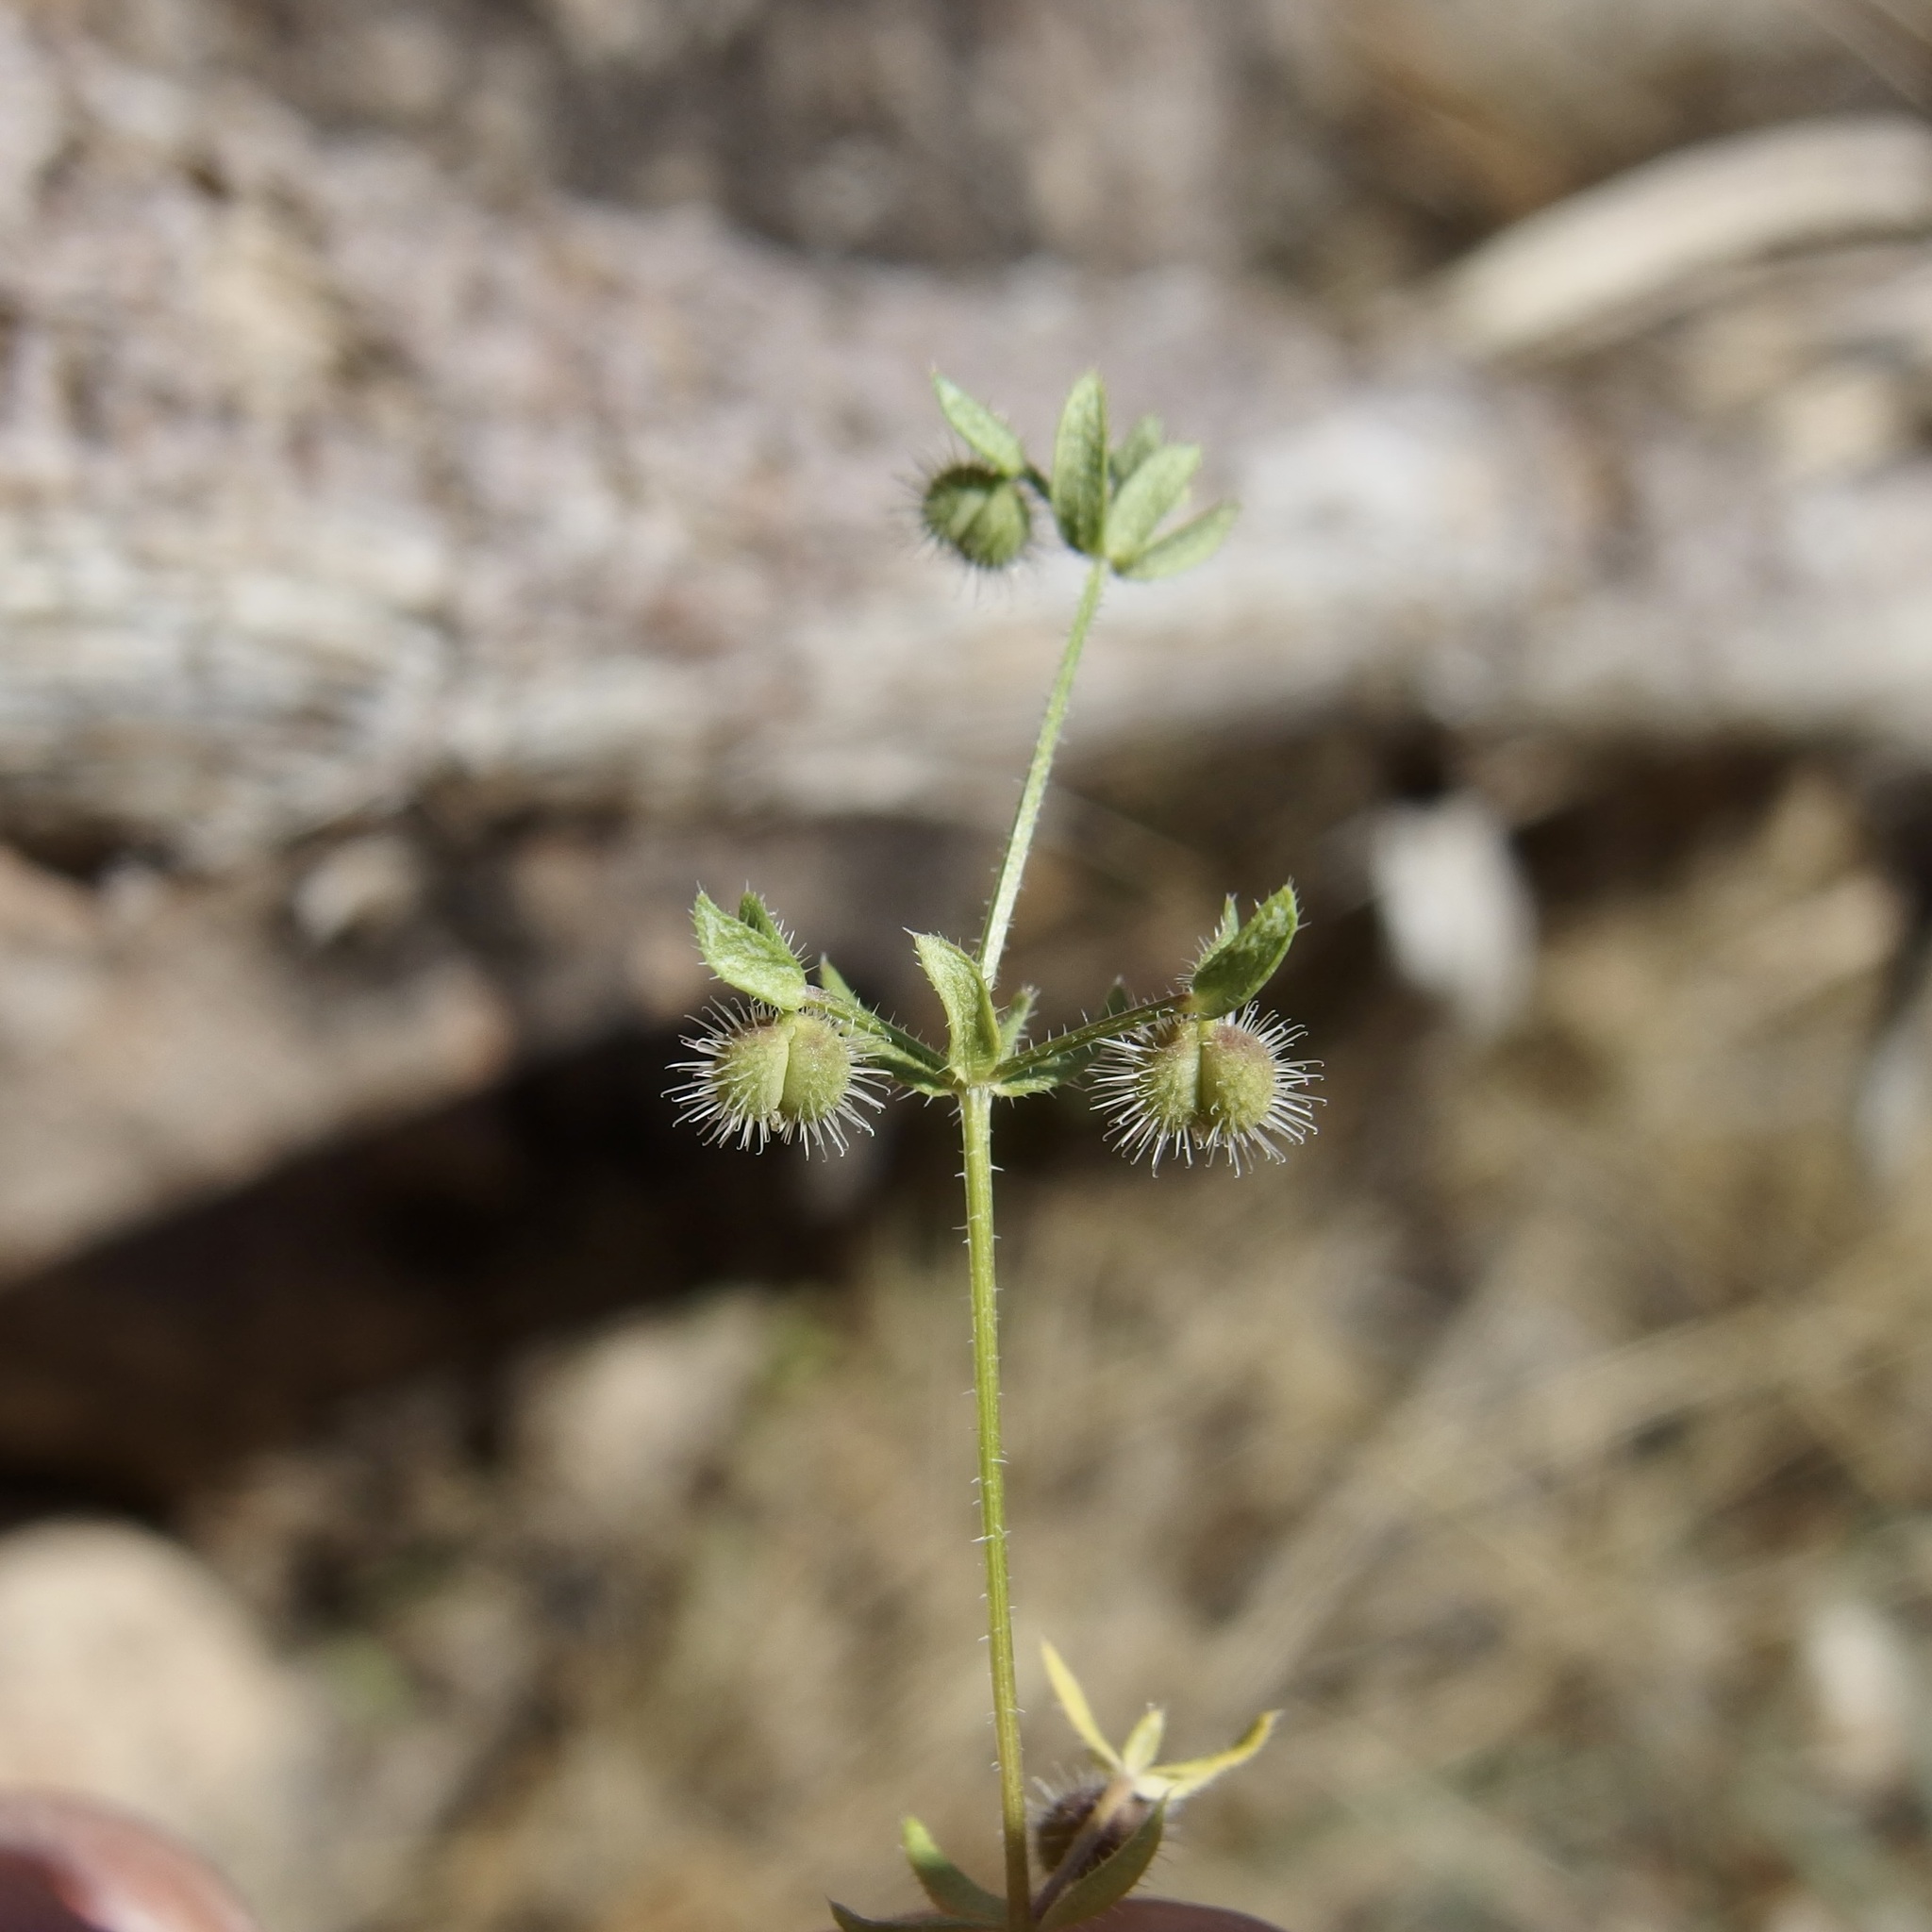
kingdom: Plantae
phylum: Tracheophyta
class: Magnoliopsida
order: Gentianales
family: Rubiaceae
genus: Galium
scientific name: Galium proliferum
